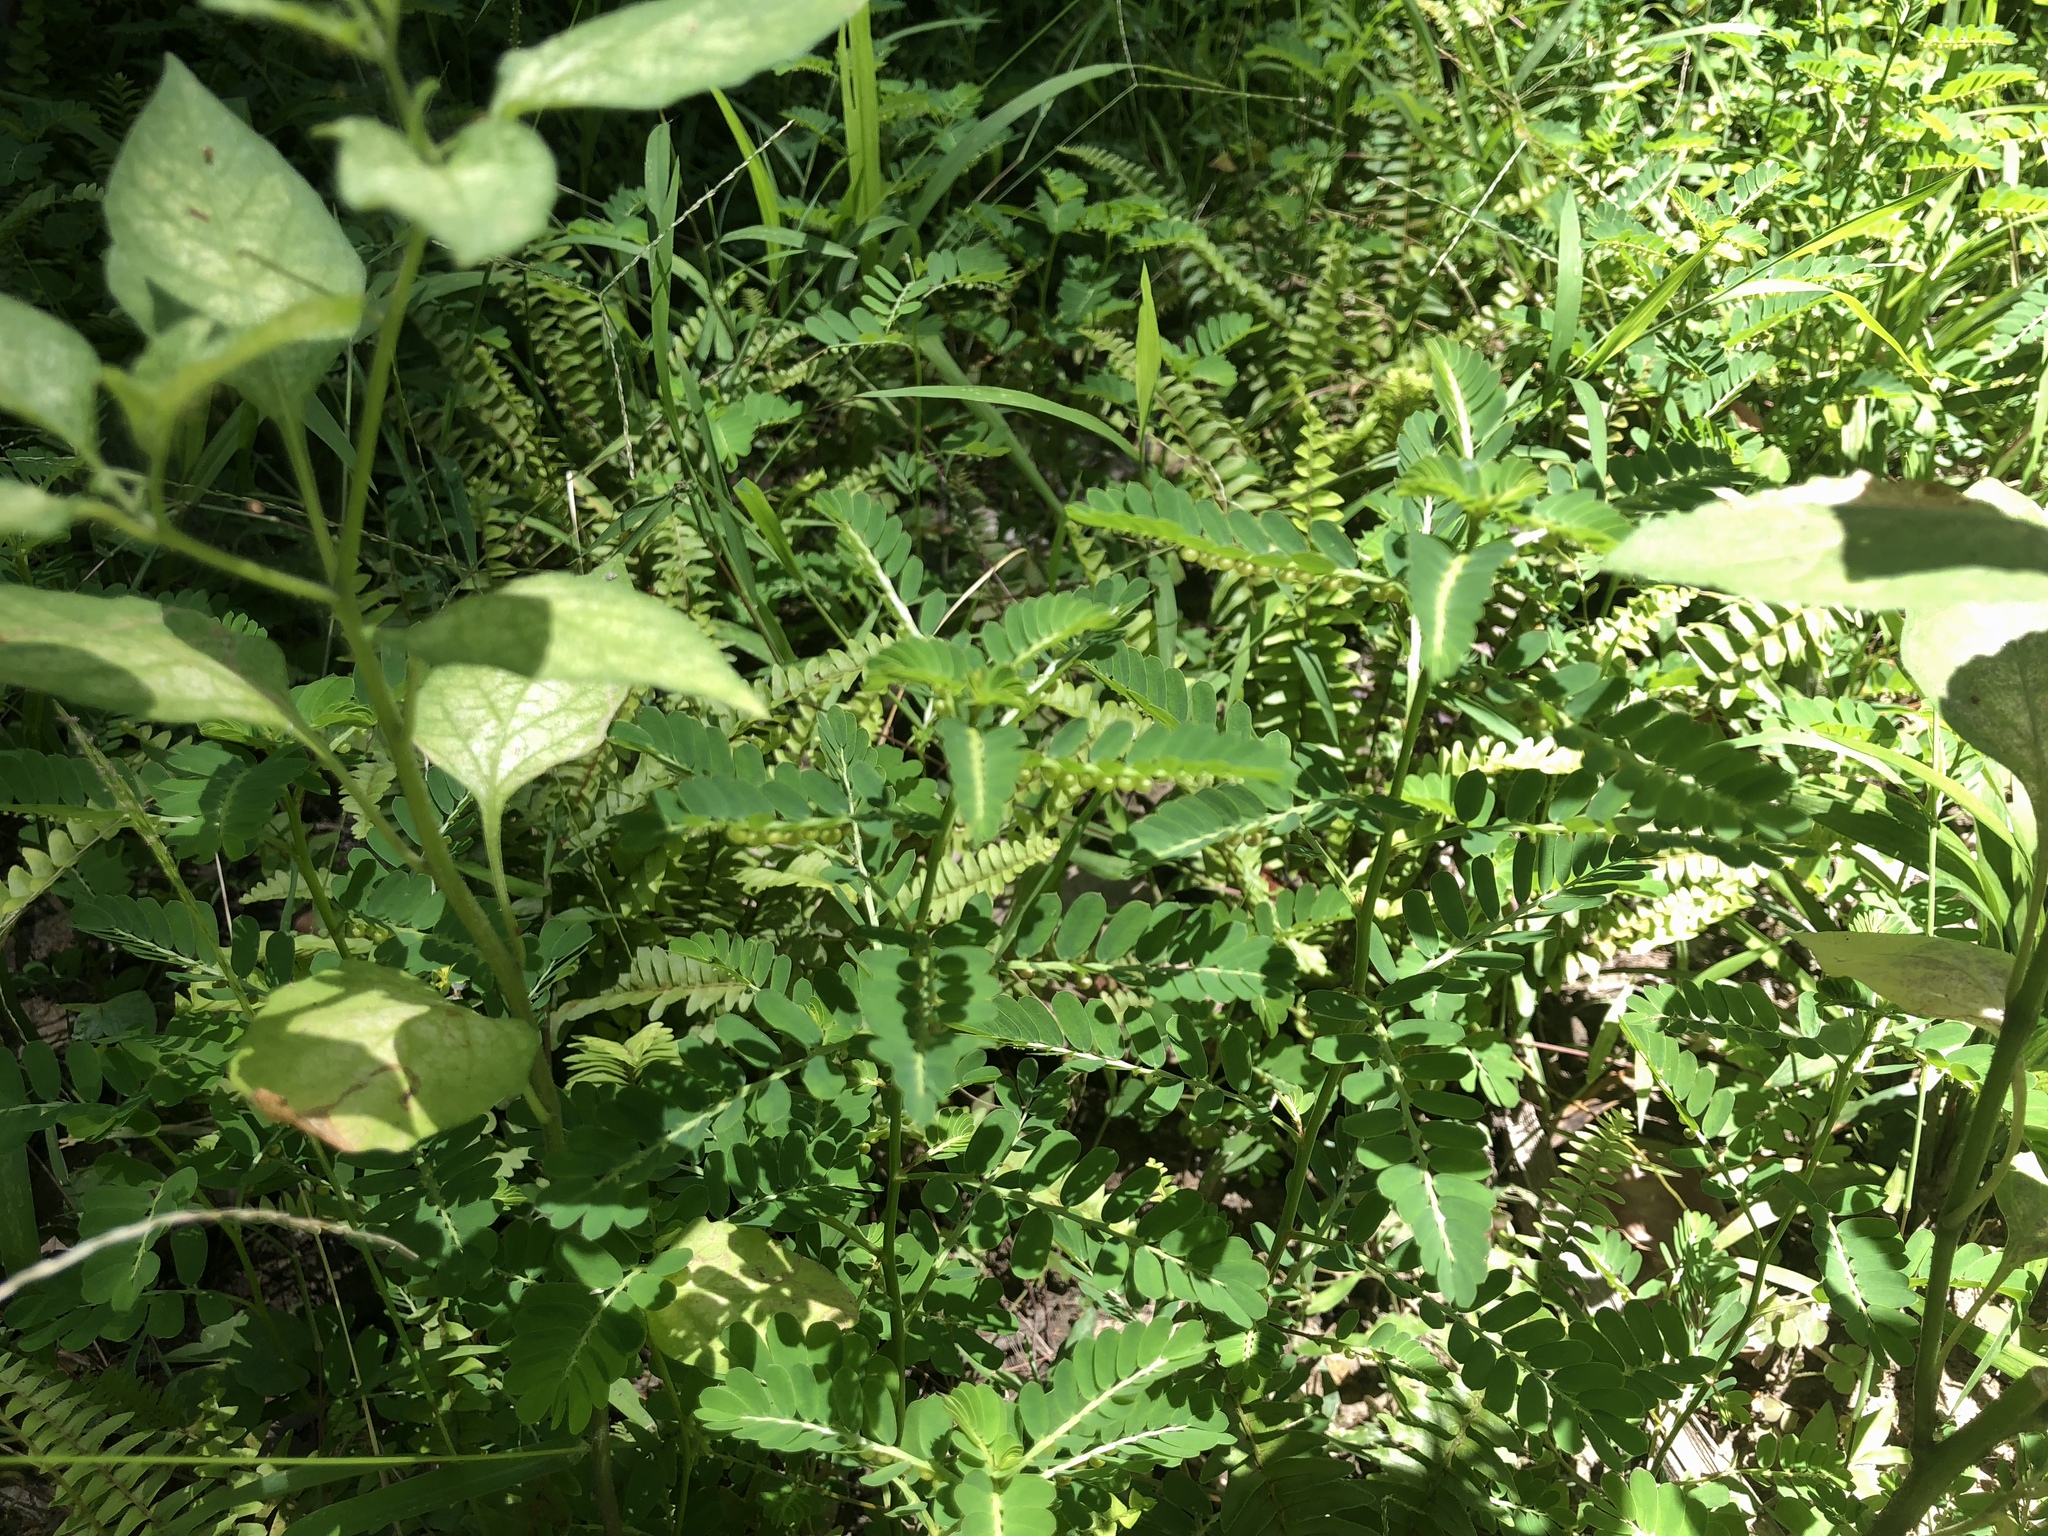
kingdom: Plantae
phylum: Tracheophyta
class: Magnoliopsida
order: Malpighiales
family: Phyllanthaceae
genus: Phyllanthus
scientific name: Phyllanthus urinaria
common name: Chamber bitter
